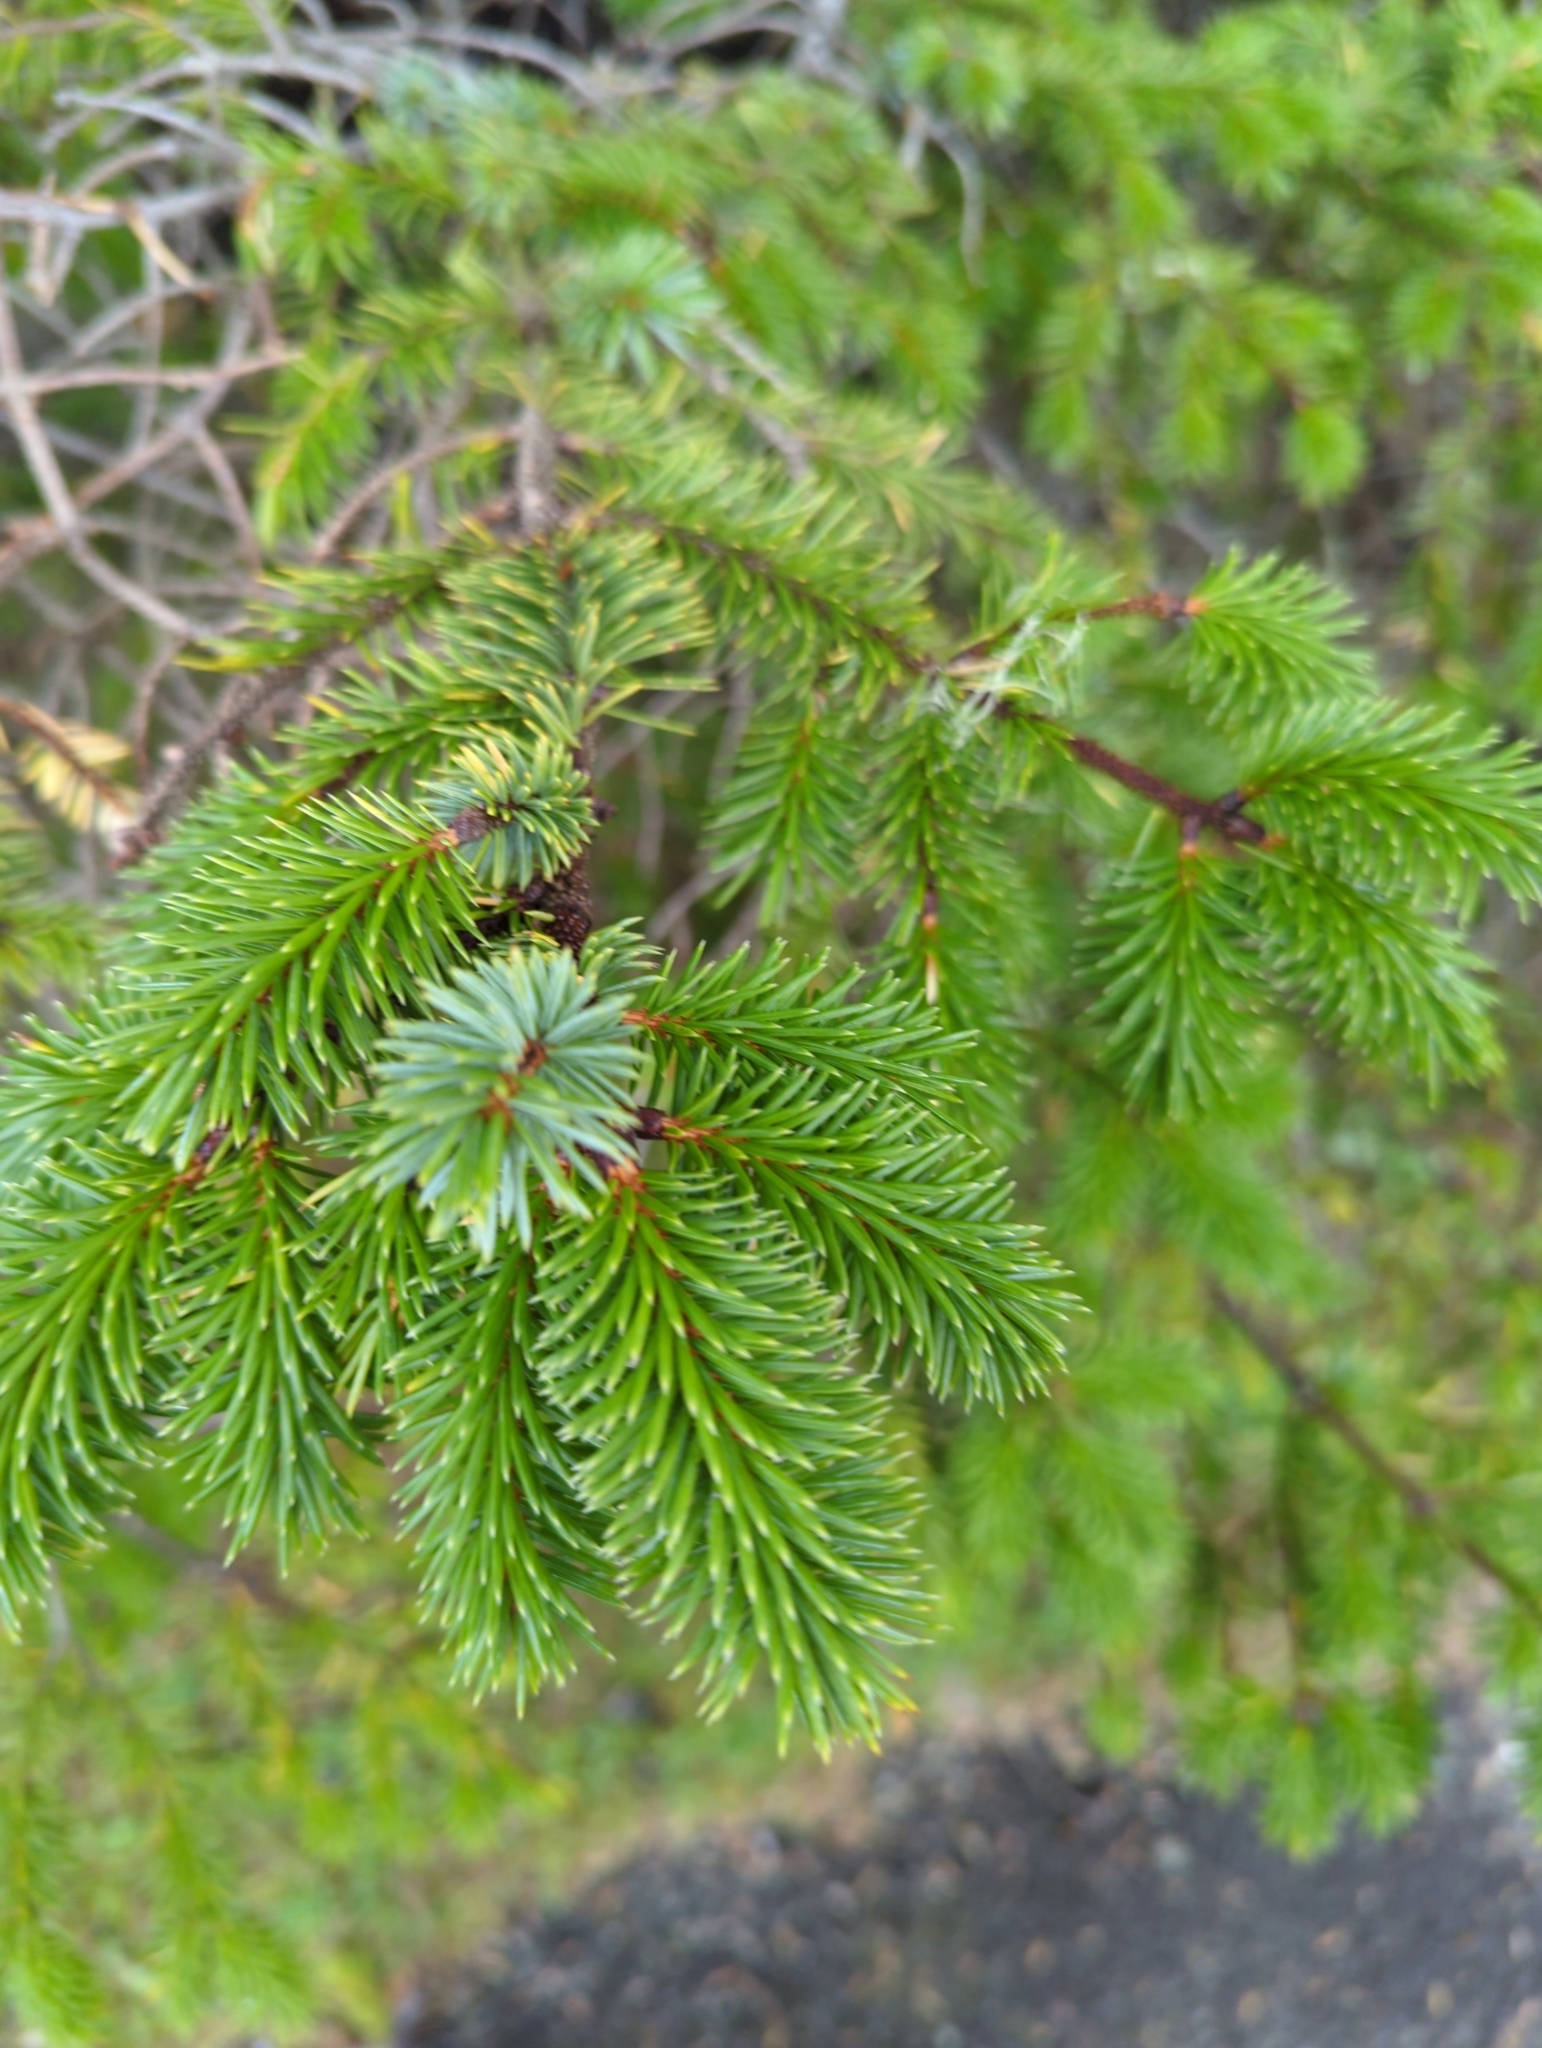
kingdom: Plantae
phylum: Tracheophyta
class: Pinopsida
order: Pinales
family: Pinaceae
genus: Picea
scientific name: Picea sitchensis
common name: Sitka spruce
